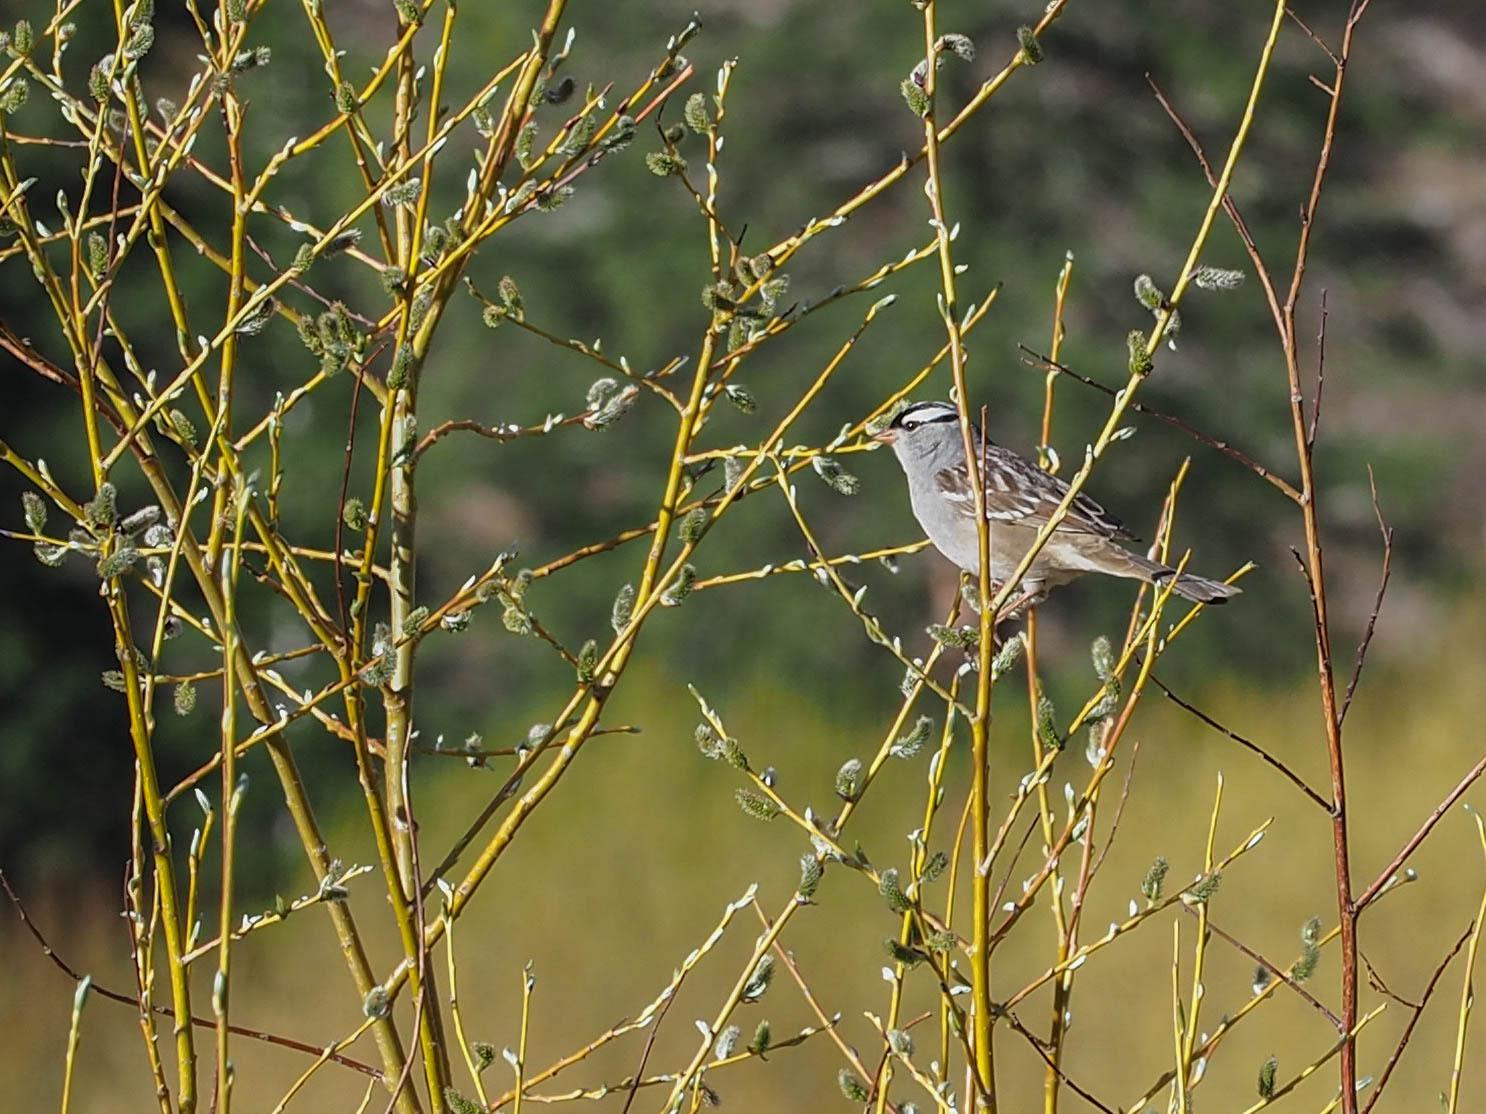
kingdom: Animalia
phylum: Chordata
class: Aves
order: Passeriformes
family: Passerellidae
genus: Zonotrichia
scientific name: Zonotrichia leucophrys
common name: White-crowned sparrow
